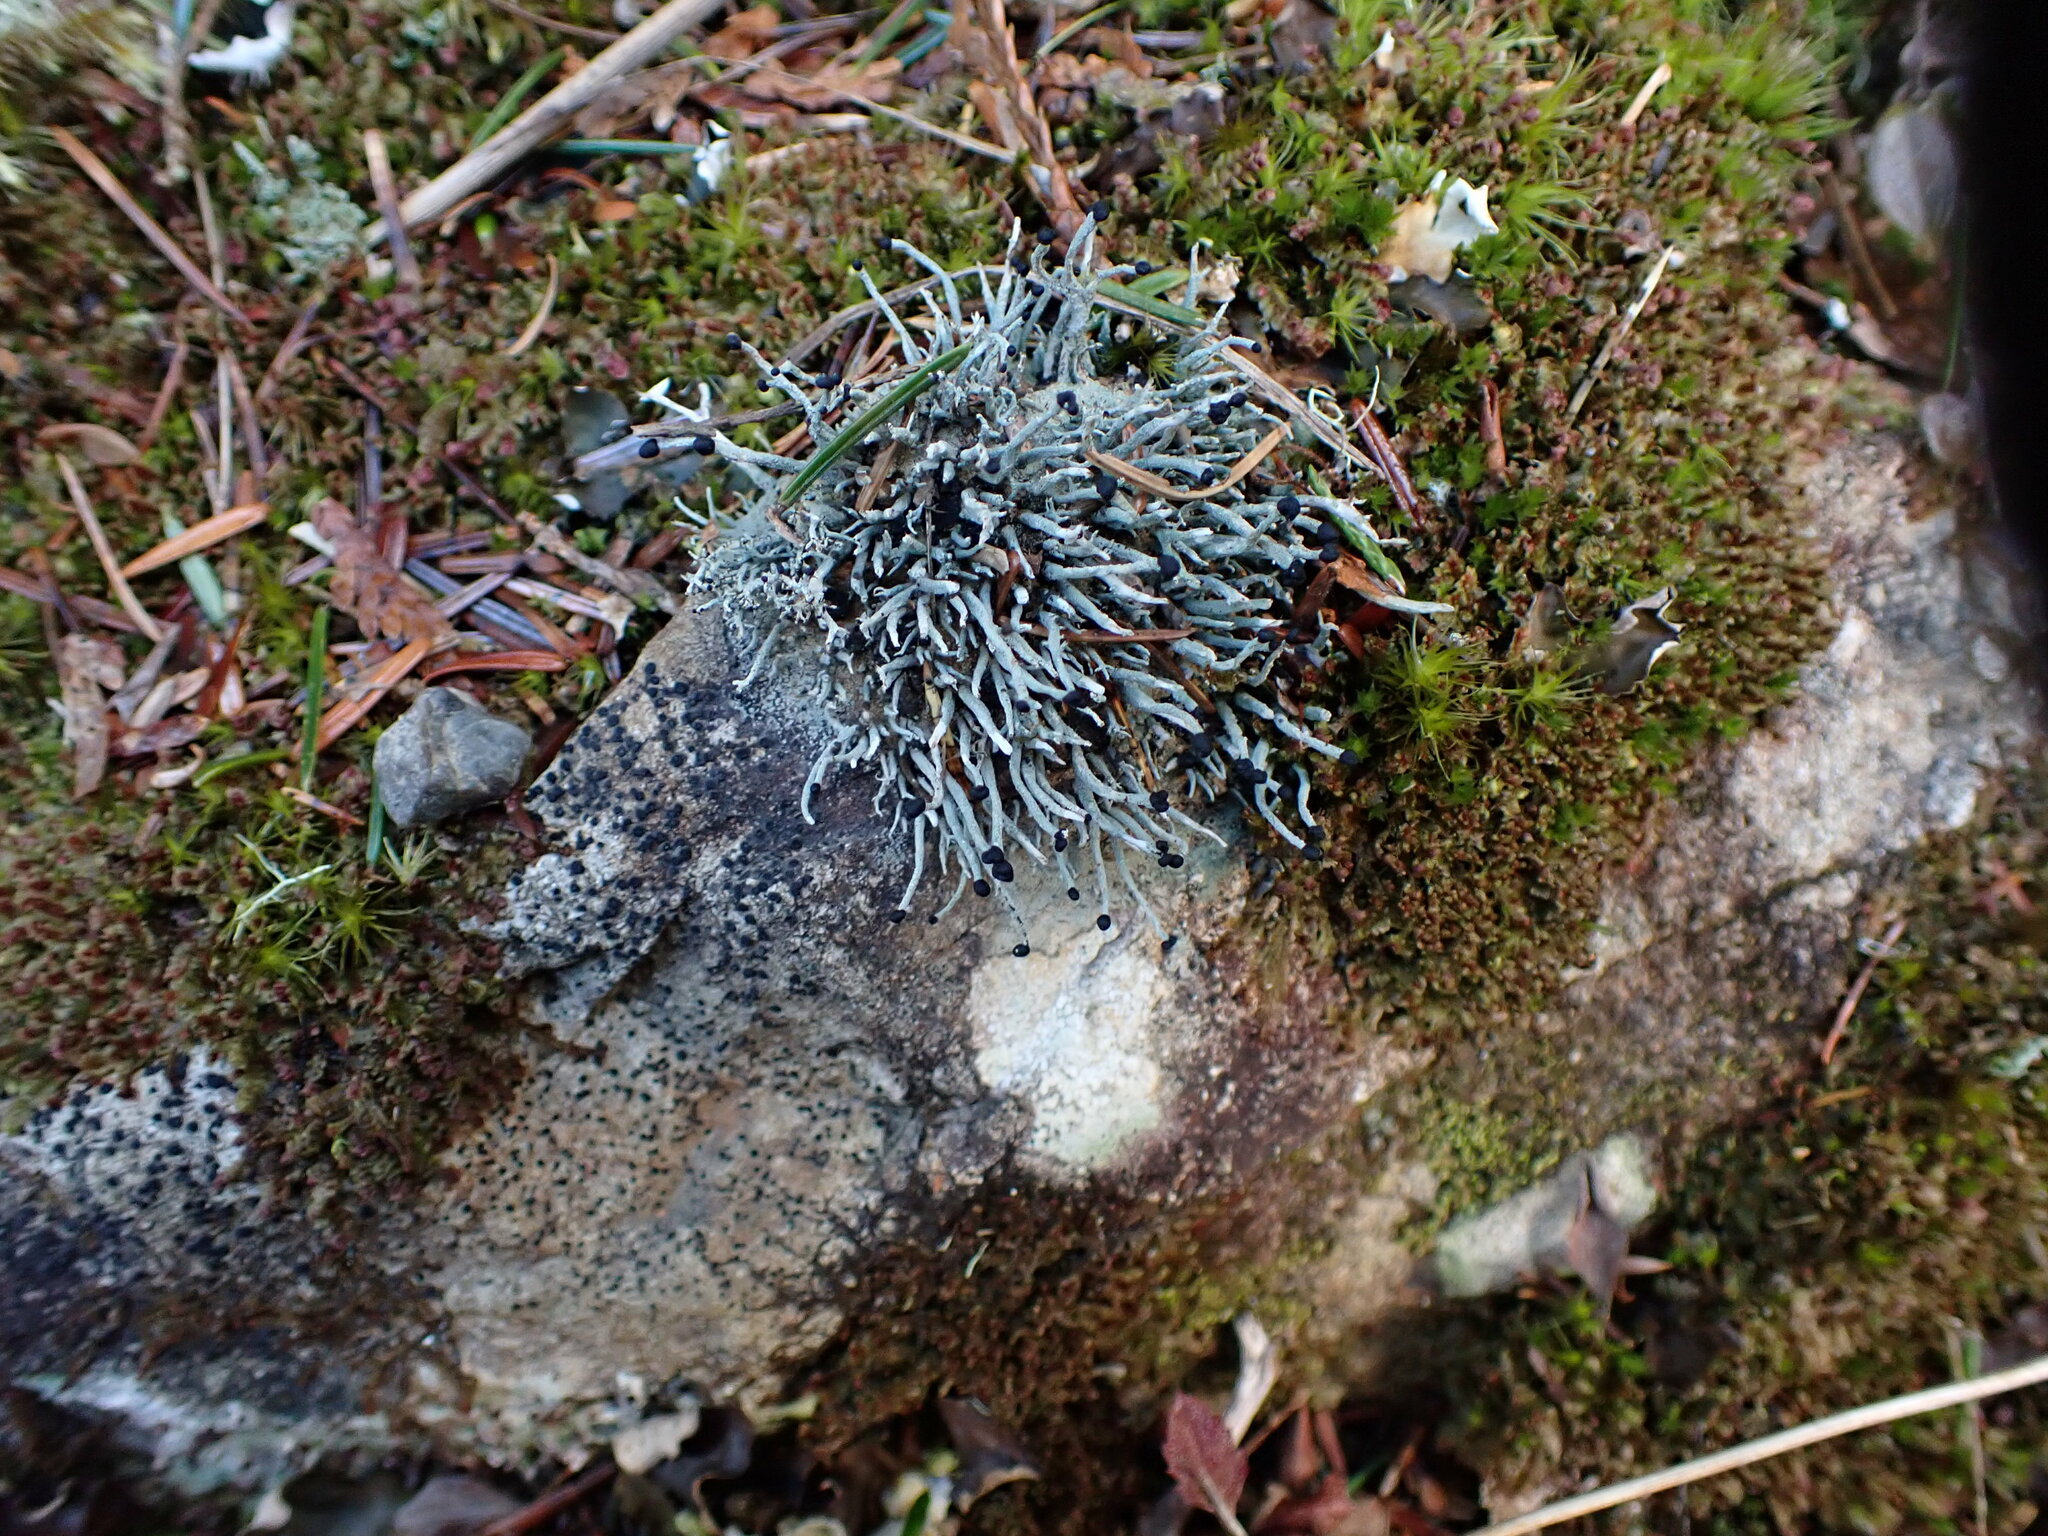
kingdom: Fungi
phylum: Ascomycota
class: Lecanoromycetes
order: Lecanorales
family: Cladoniaceae
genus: Pilophorus
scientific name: Pilophorus acicularis
